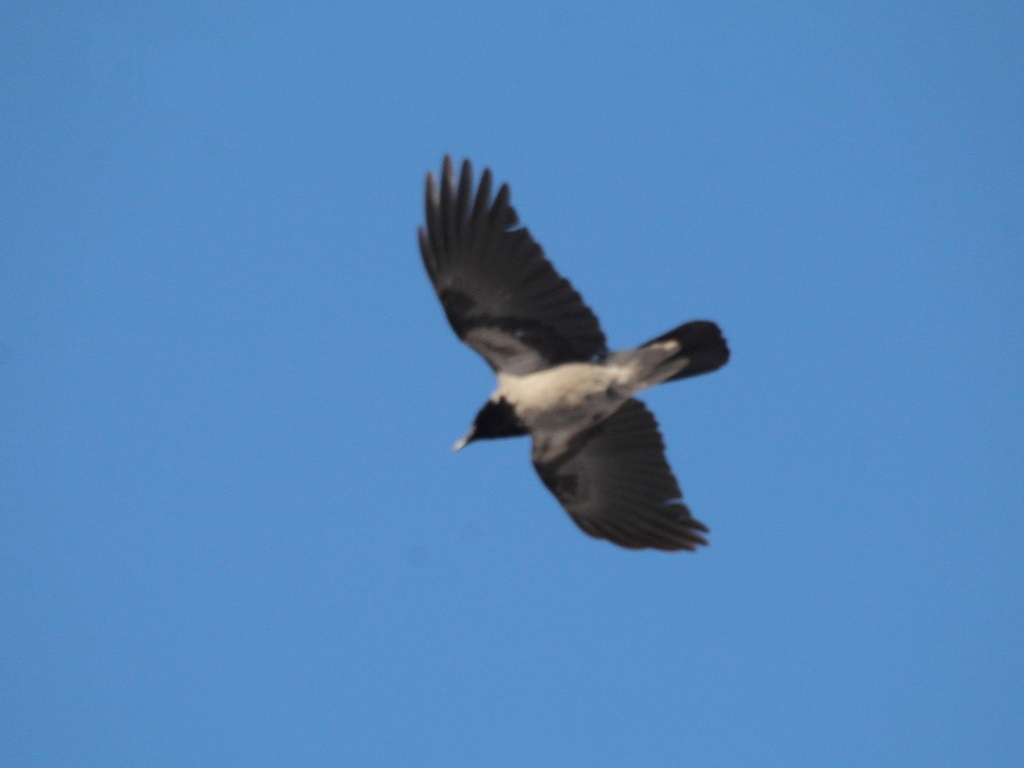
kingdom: Animalia
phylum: Chordata
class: Aves
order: Passeriformes
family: Corvidae
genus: Corvus
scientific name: Corvus cornix
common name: Hooded crow
